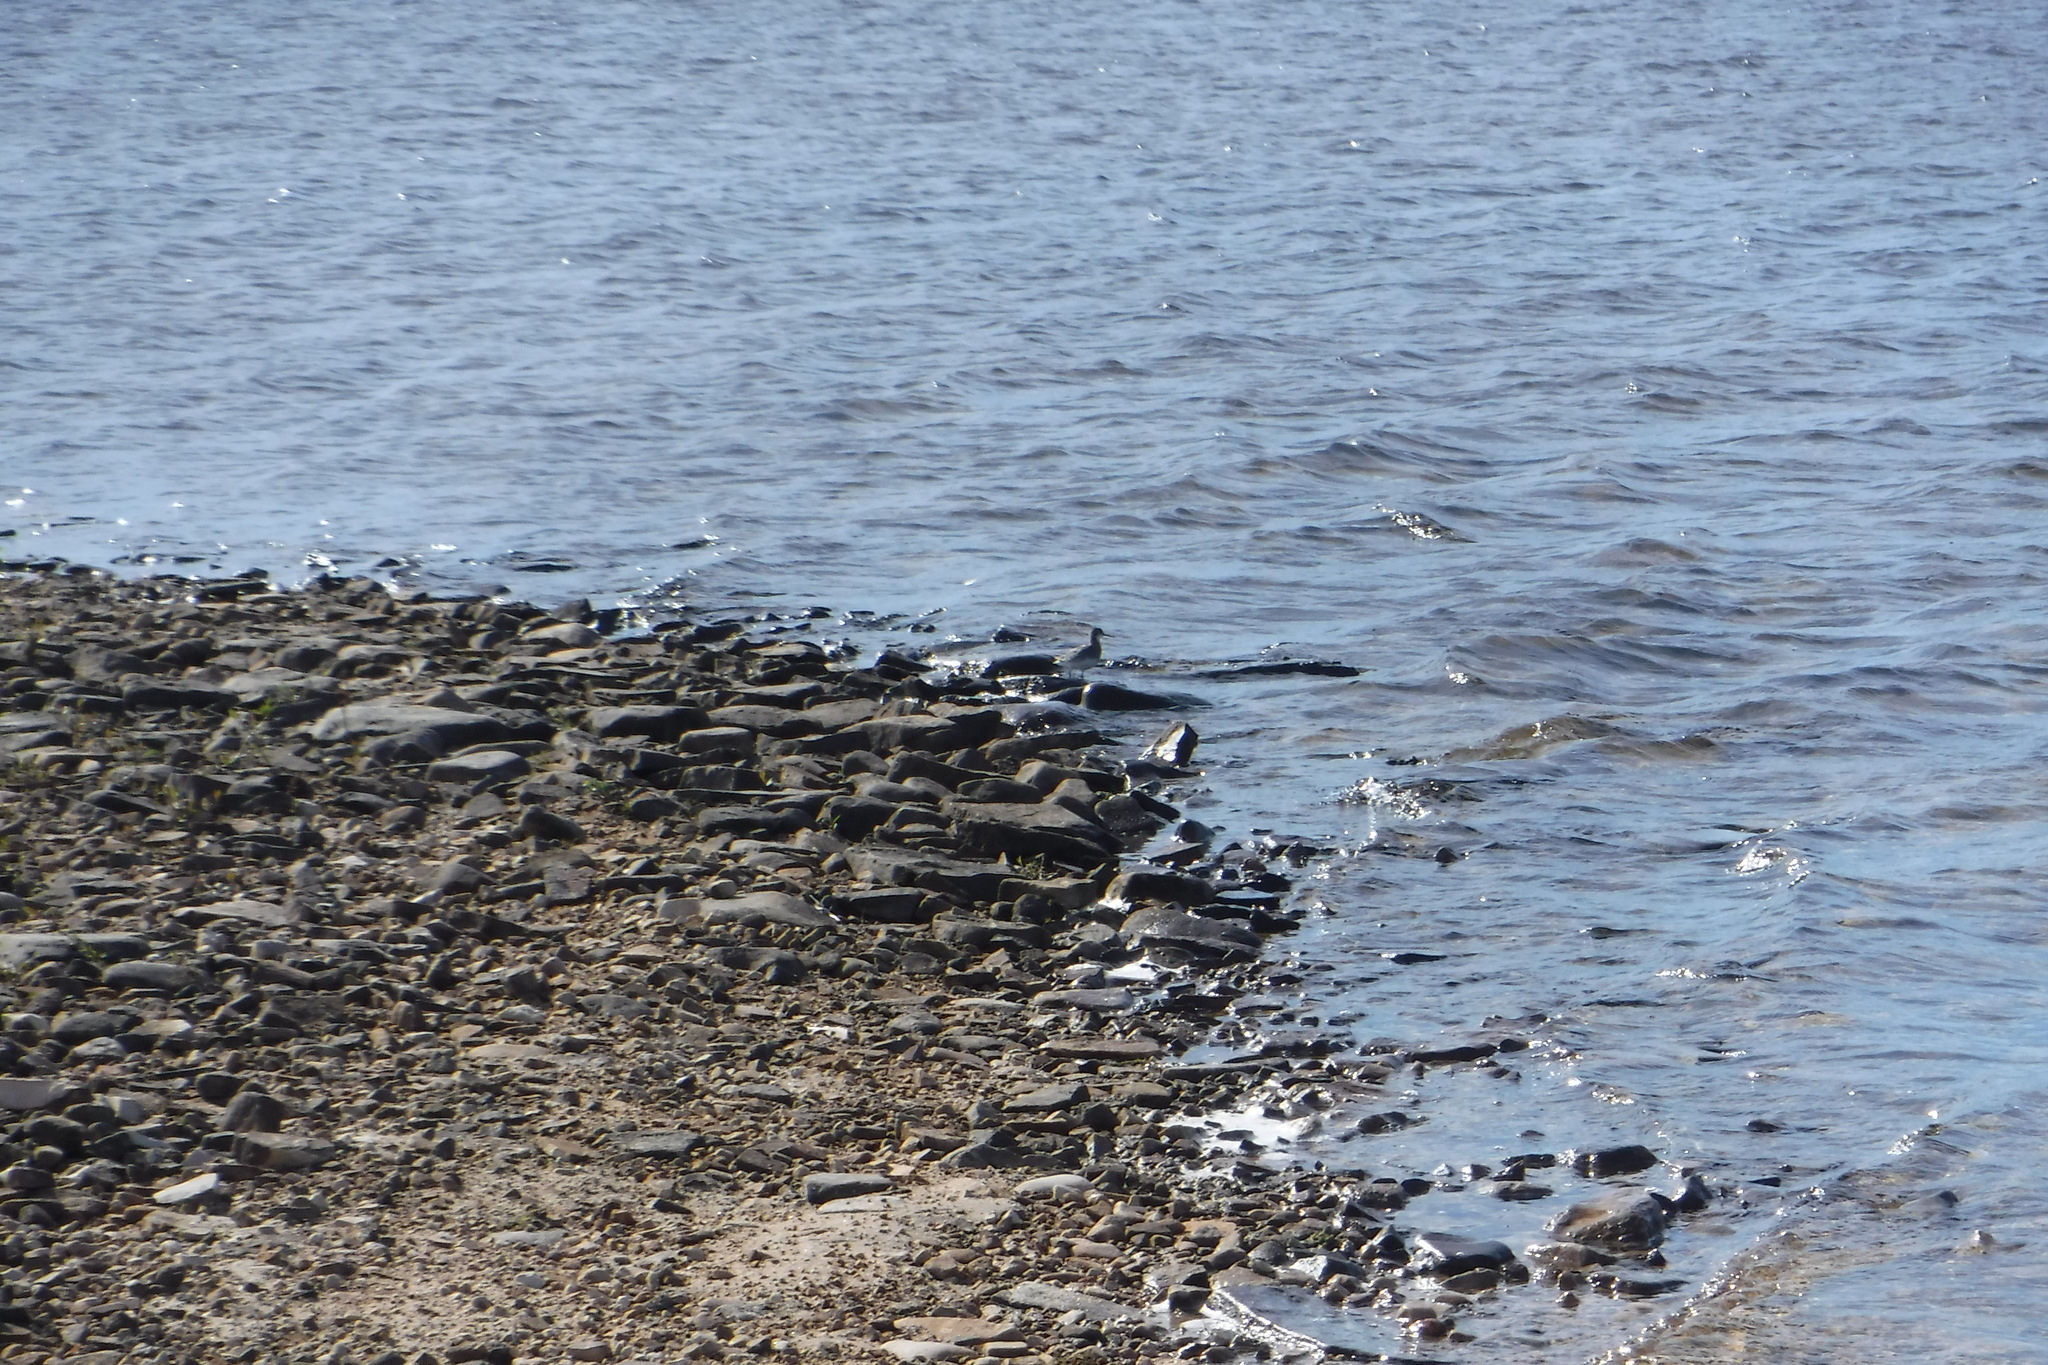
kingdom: Animalia
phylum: Chordata
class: Aves
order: Charadriiformes
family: Scolopacidae
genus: Phalaropus
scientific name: Phalaropus lobatus
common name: Red-necked phalarope
